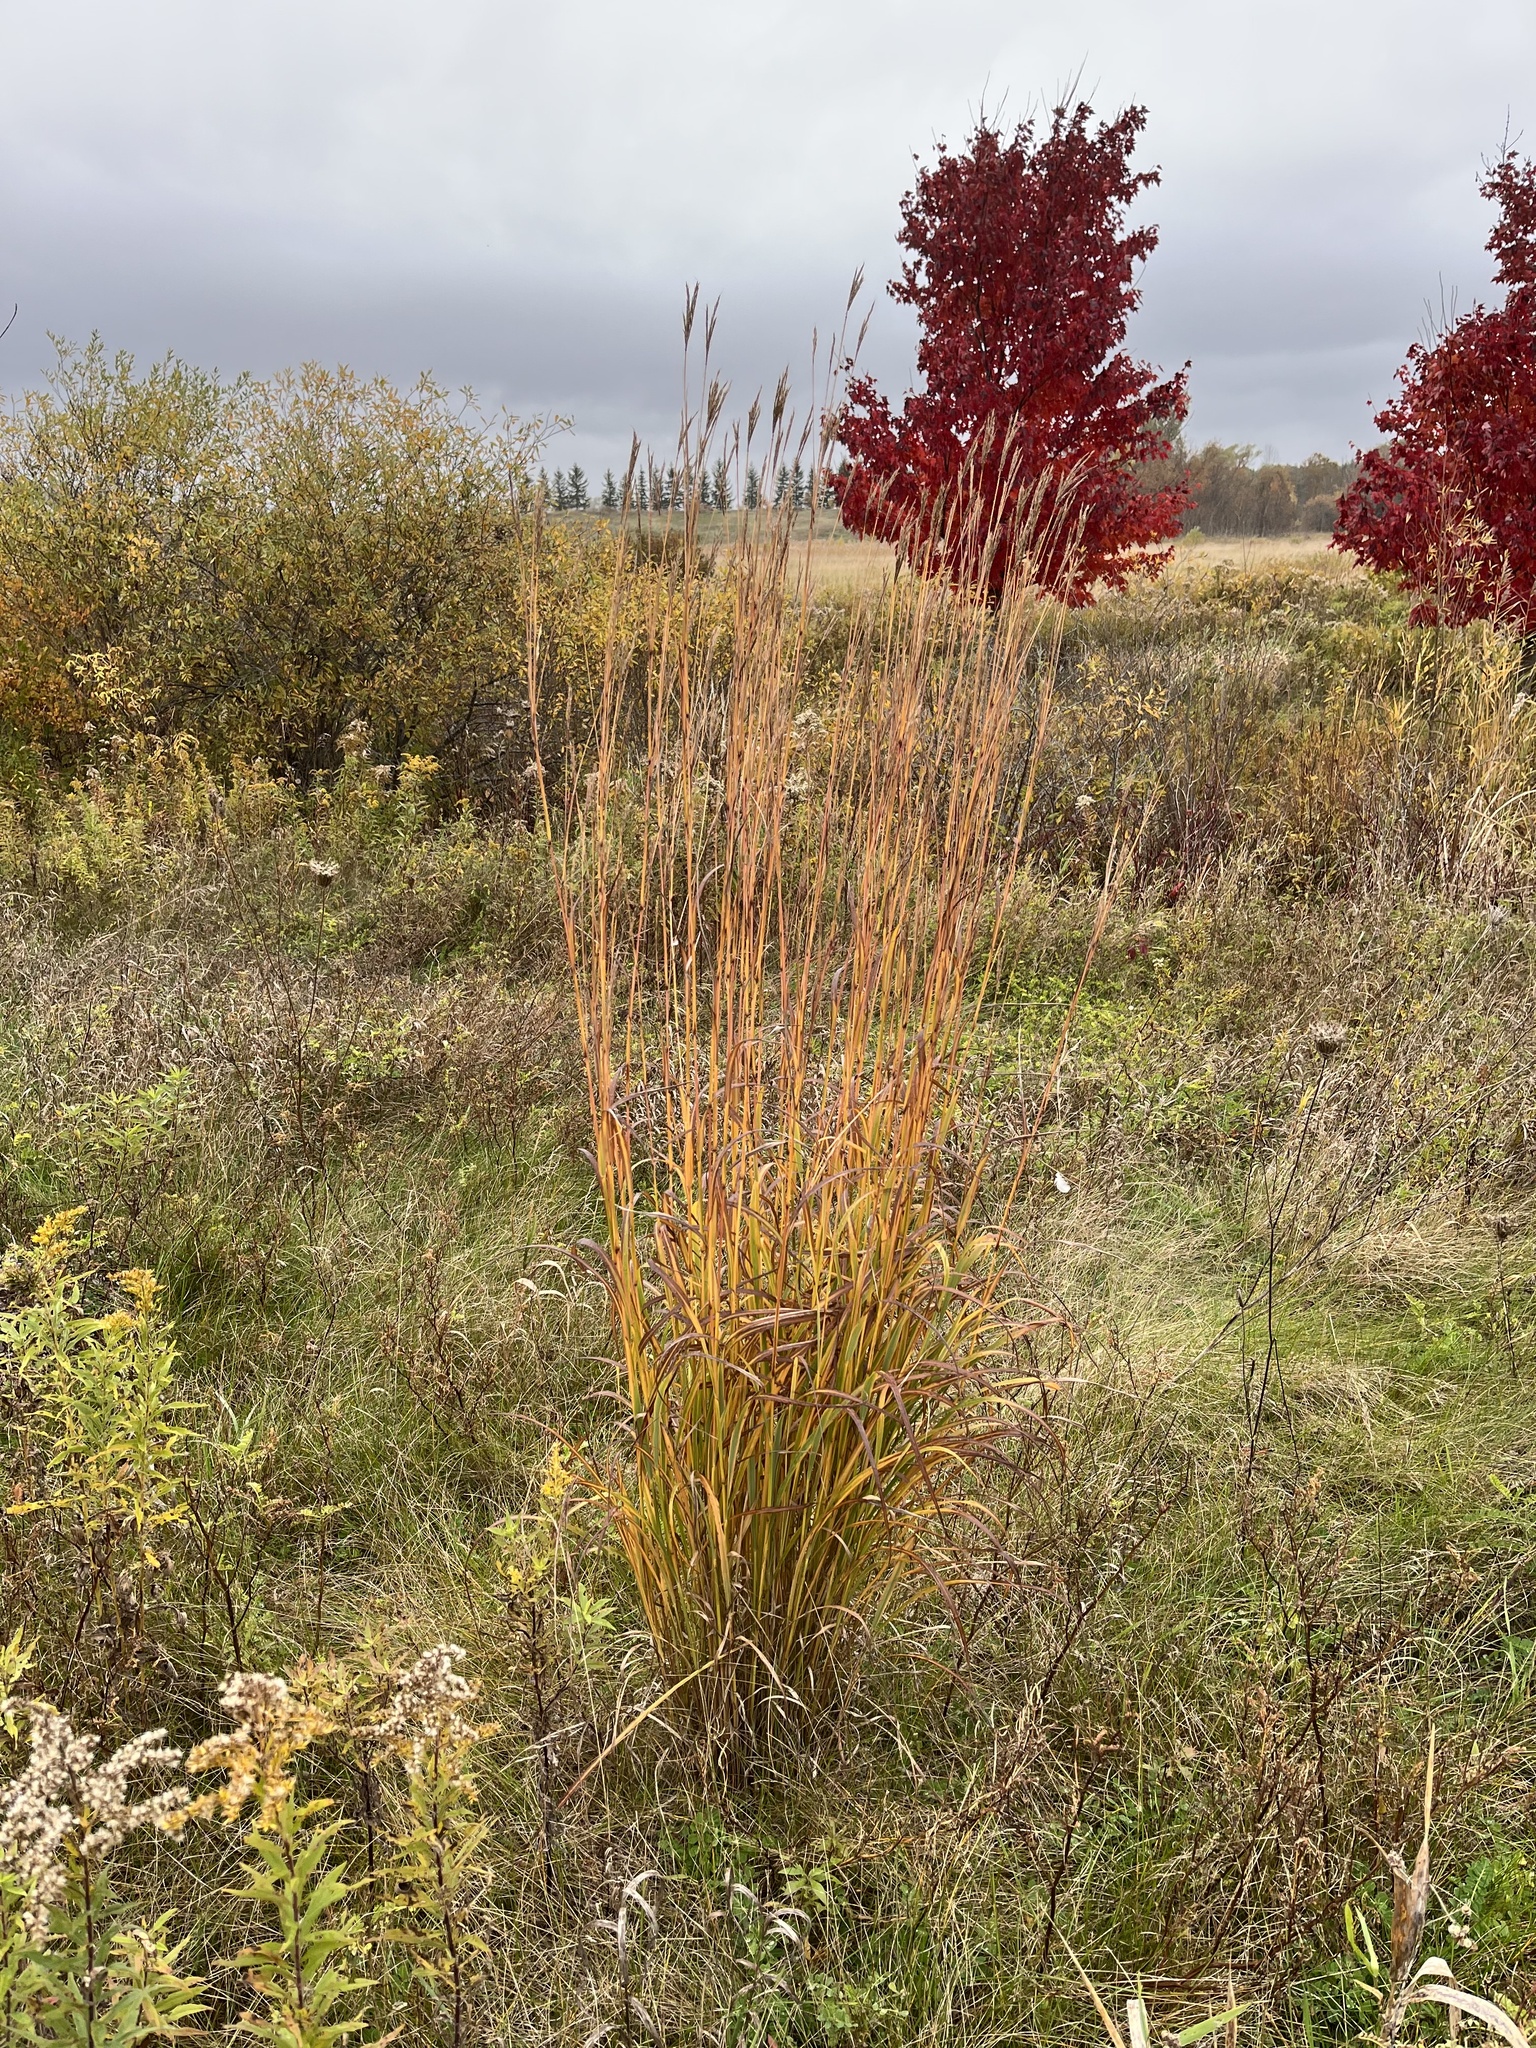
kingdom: Plantae
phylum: Tracheophyta
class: Liliopsida
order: Poales
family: Poaceae
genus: Andropogon
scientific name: Andropogon gerardi
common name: Big bluestem
